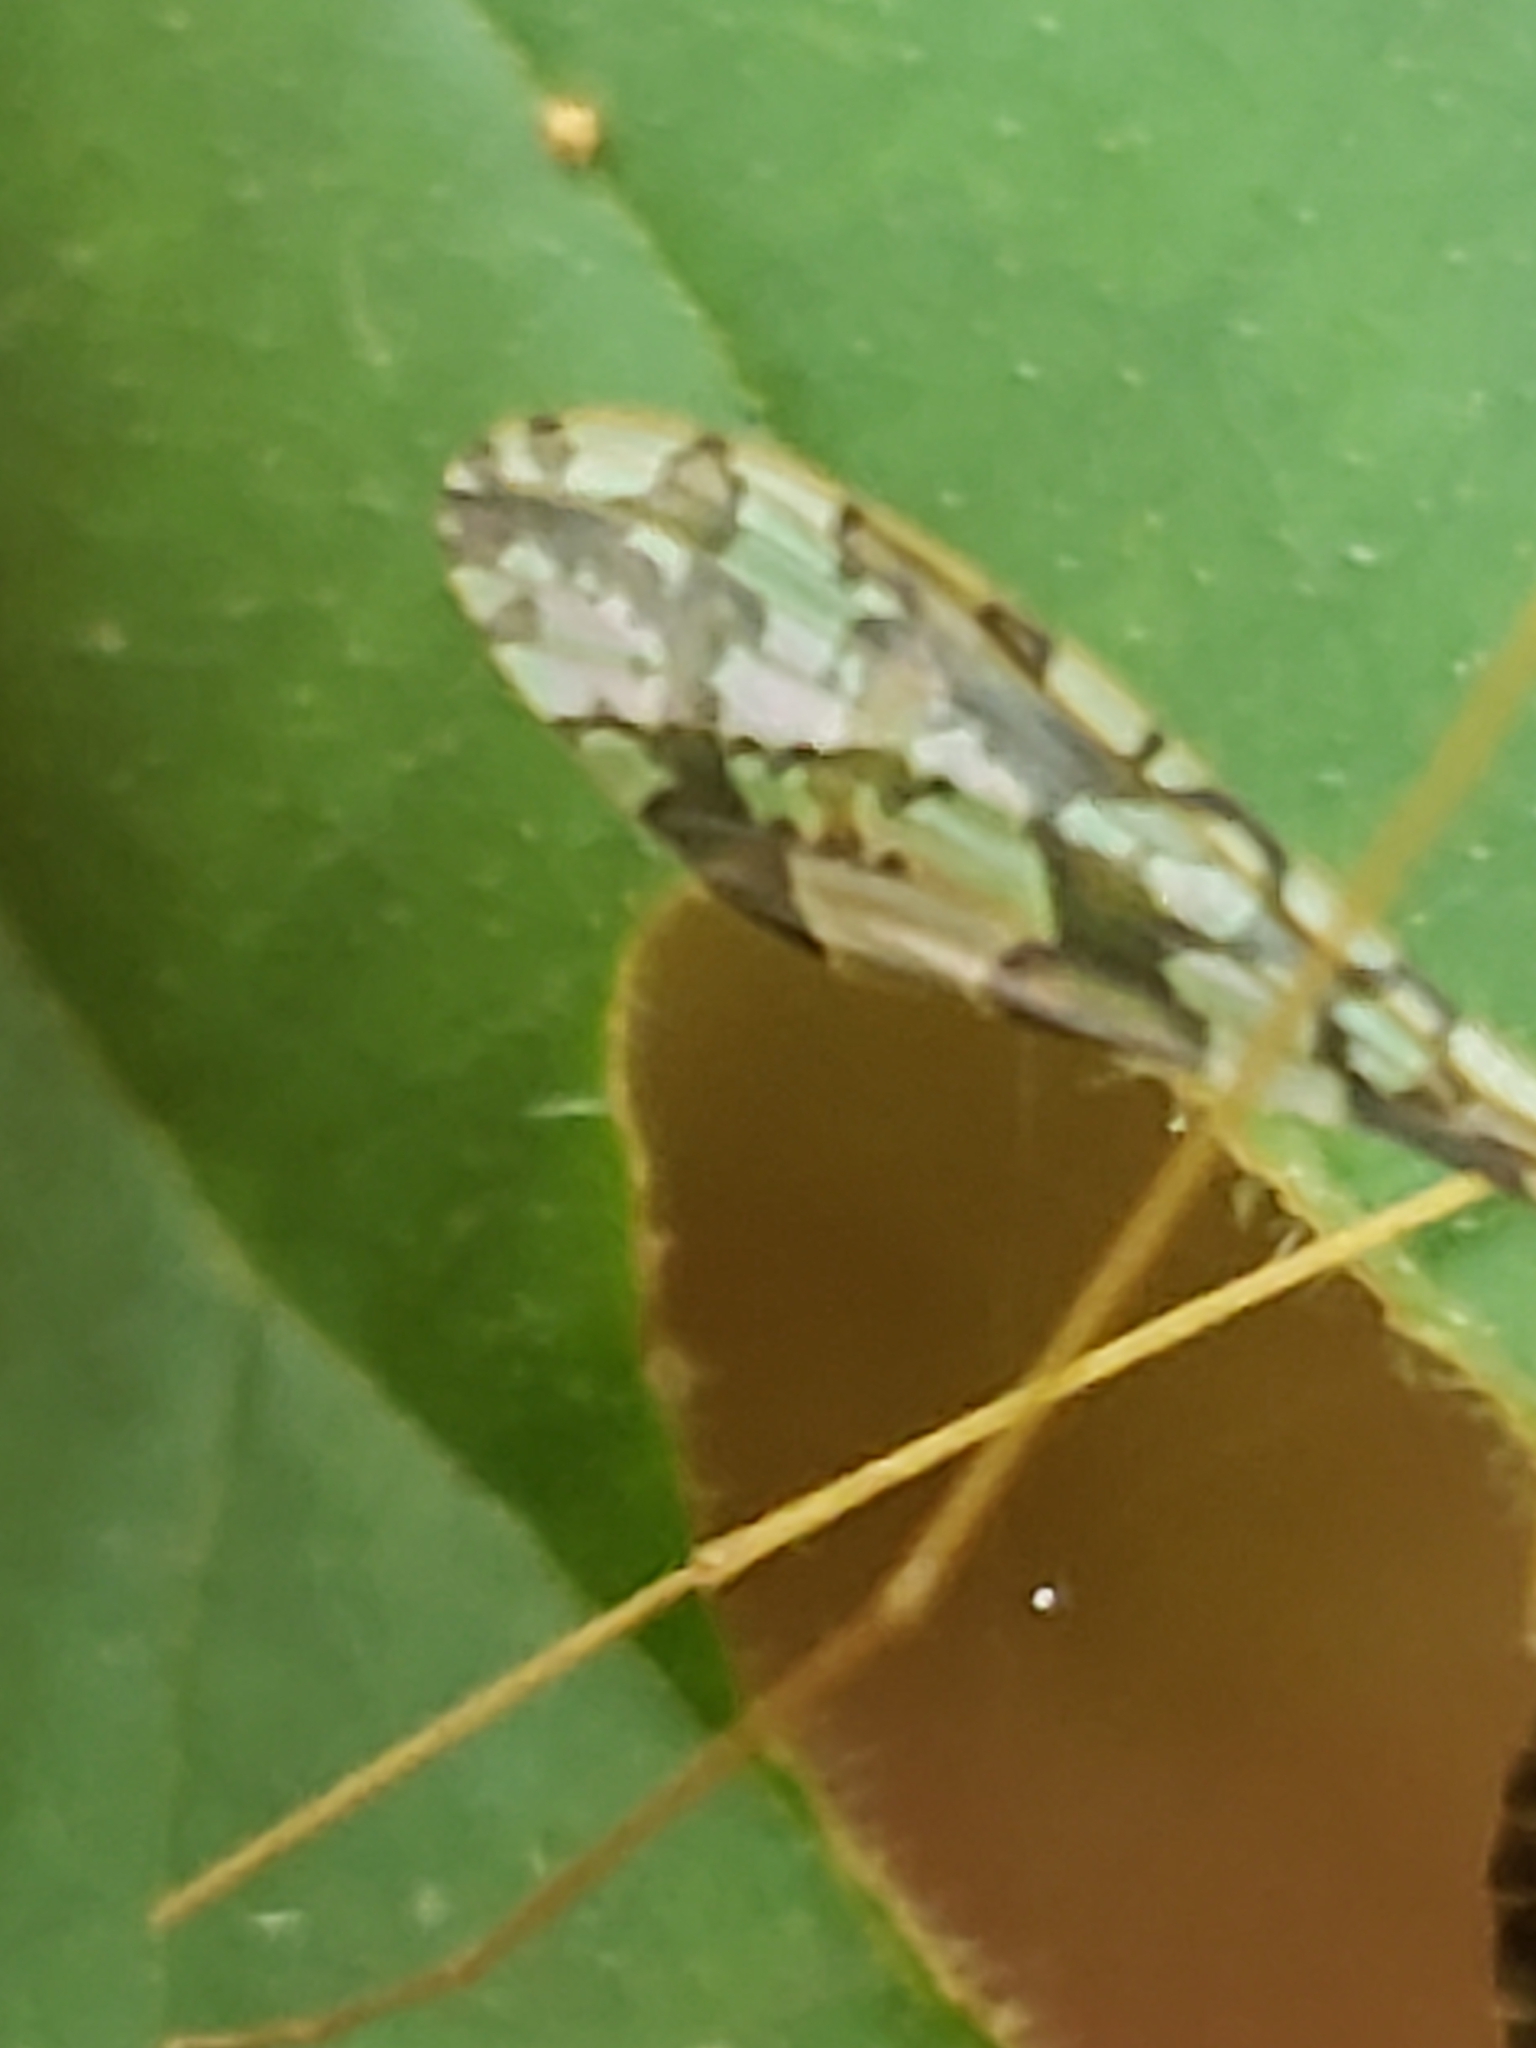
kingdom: Animalia
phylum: Arthropoda
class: Insecta
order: Diptera
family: Limoniidae
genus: Epiphragma
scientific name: Epiphragma solatrix
